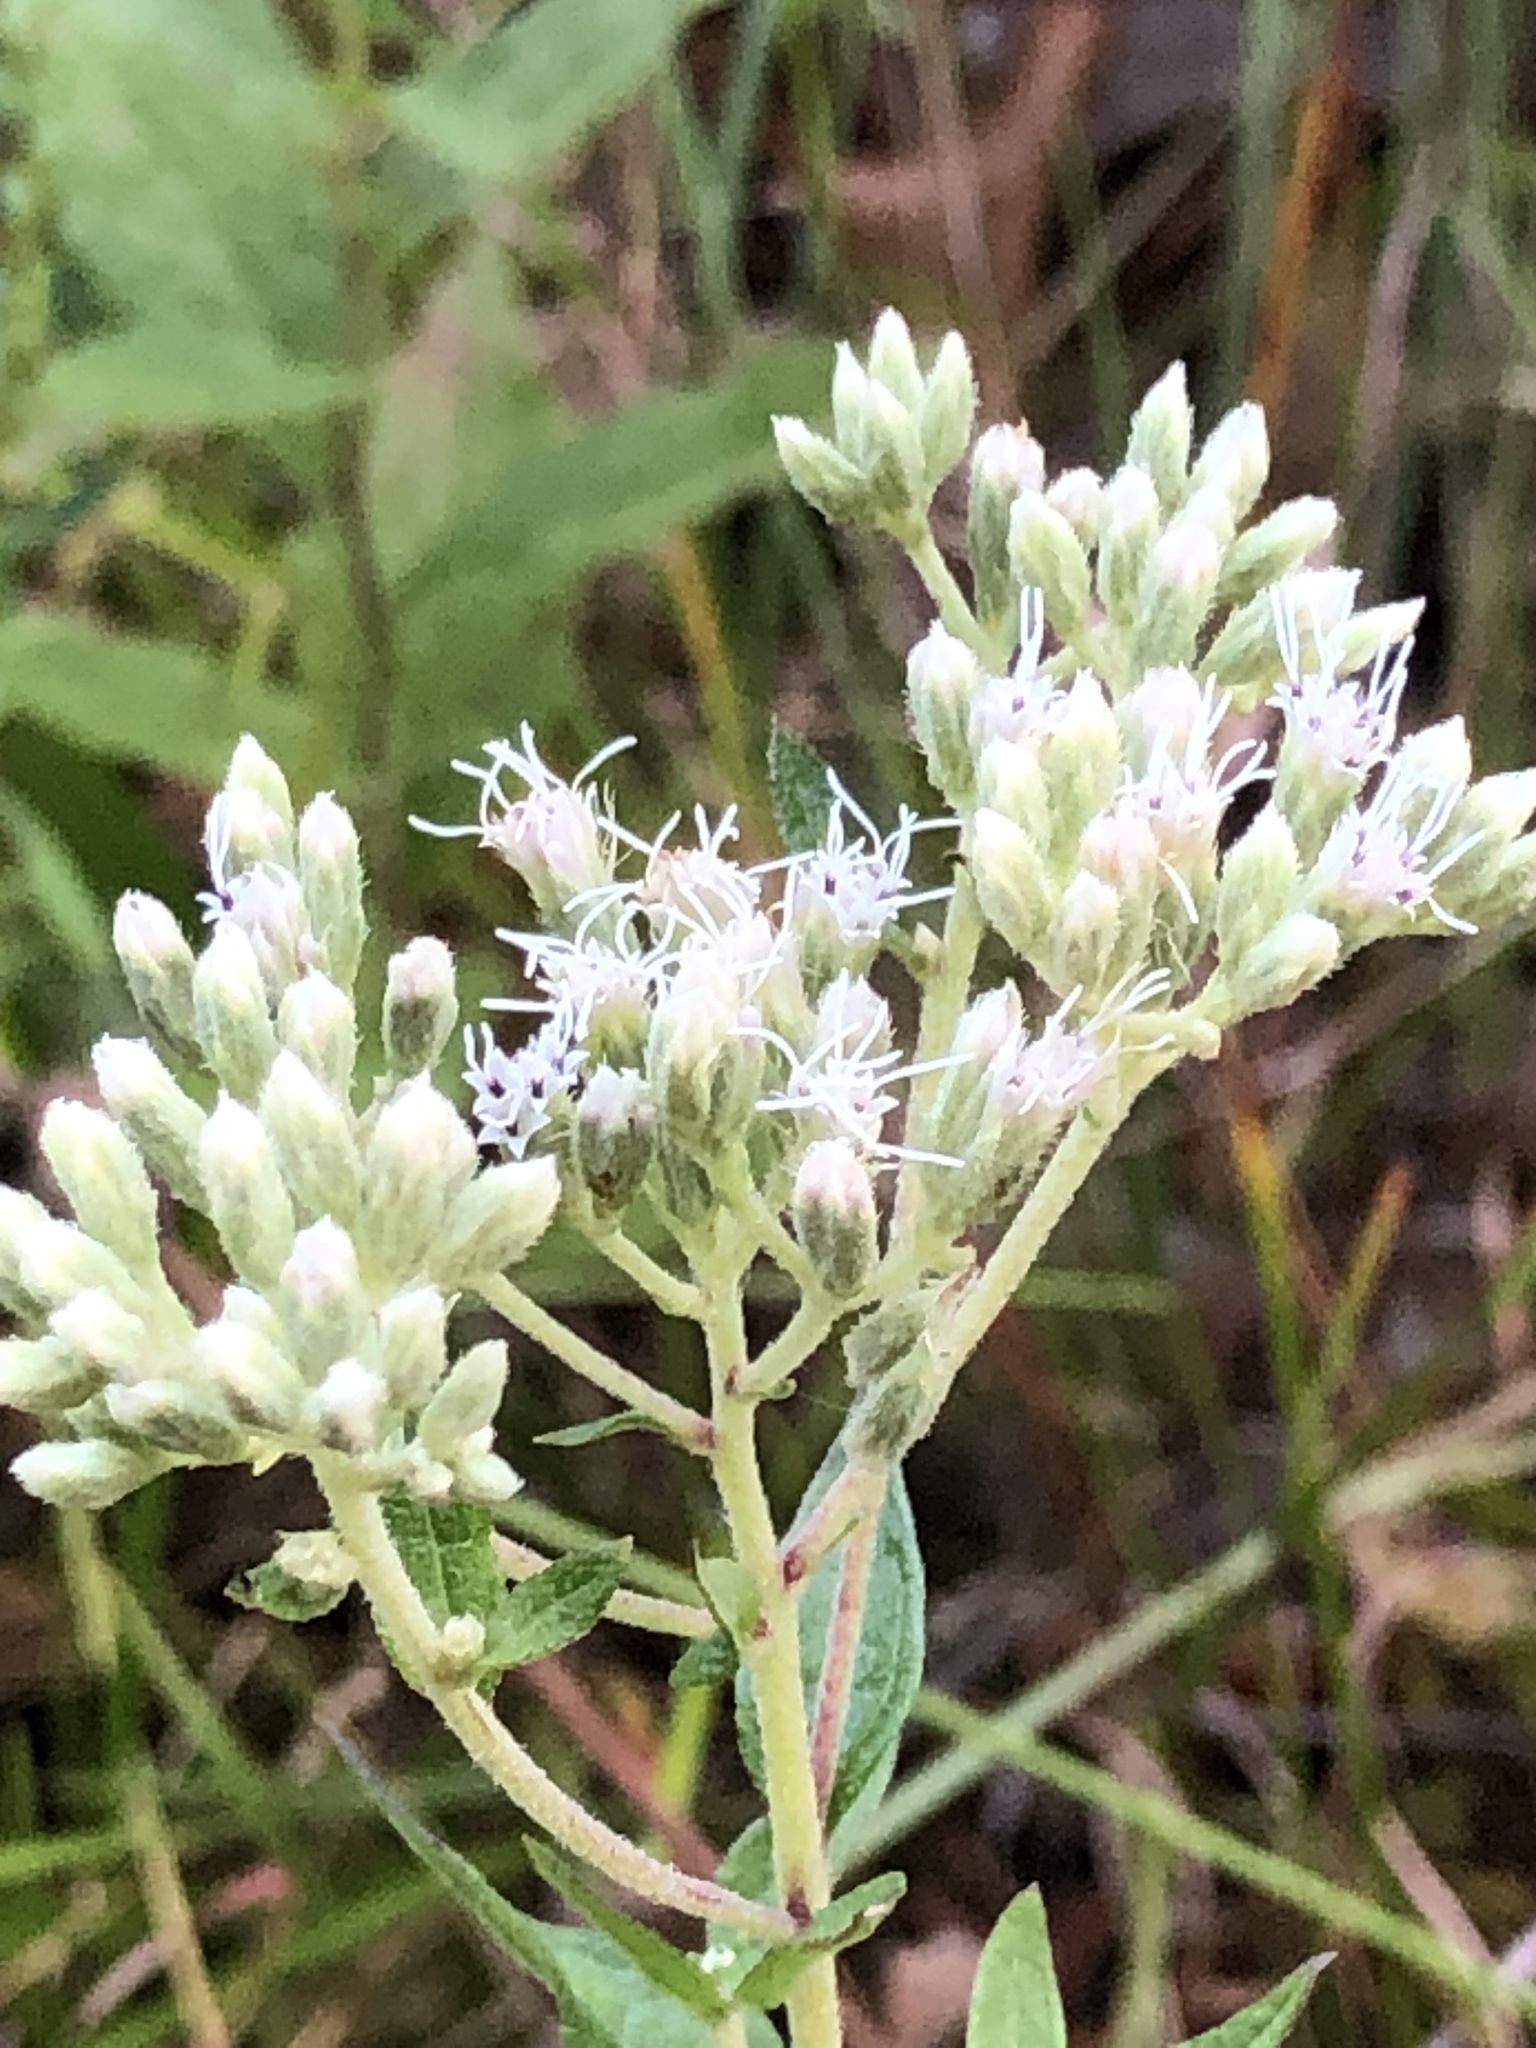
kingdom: Plantae
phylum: Tracheophyta
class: Magnoliopsida
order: Asterales
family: Asteraceae
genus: Eupatorium
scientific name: Eupatorium pilosum
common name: Rough boneset
